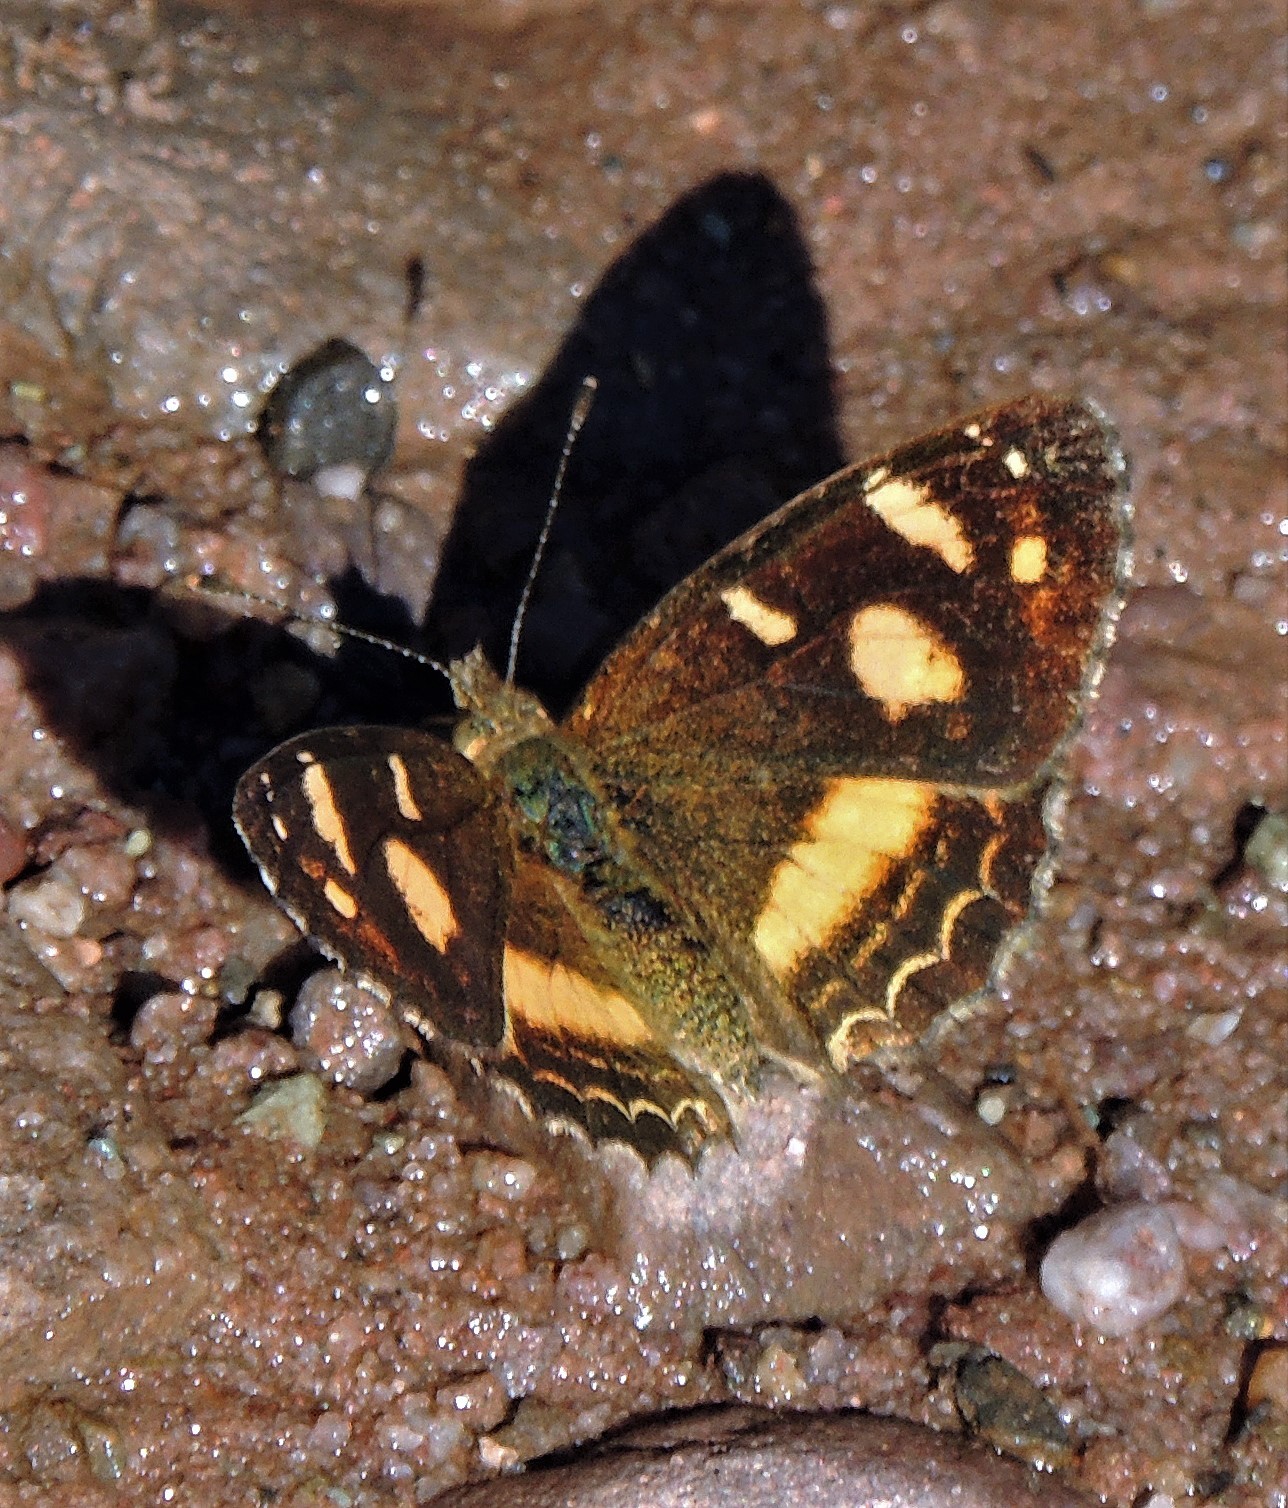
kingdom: Animalia
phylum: Arthropoda
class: Insecta
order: Lepidoptera
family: Nymphalidae
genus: Telenassa
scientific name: Telenassa berenice
